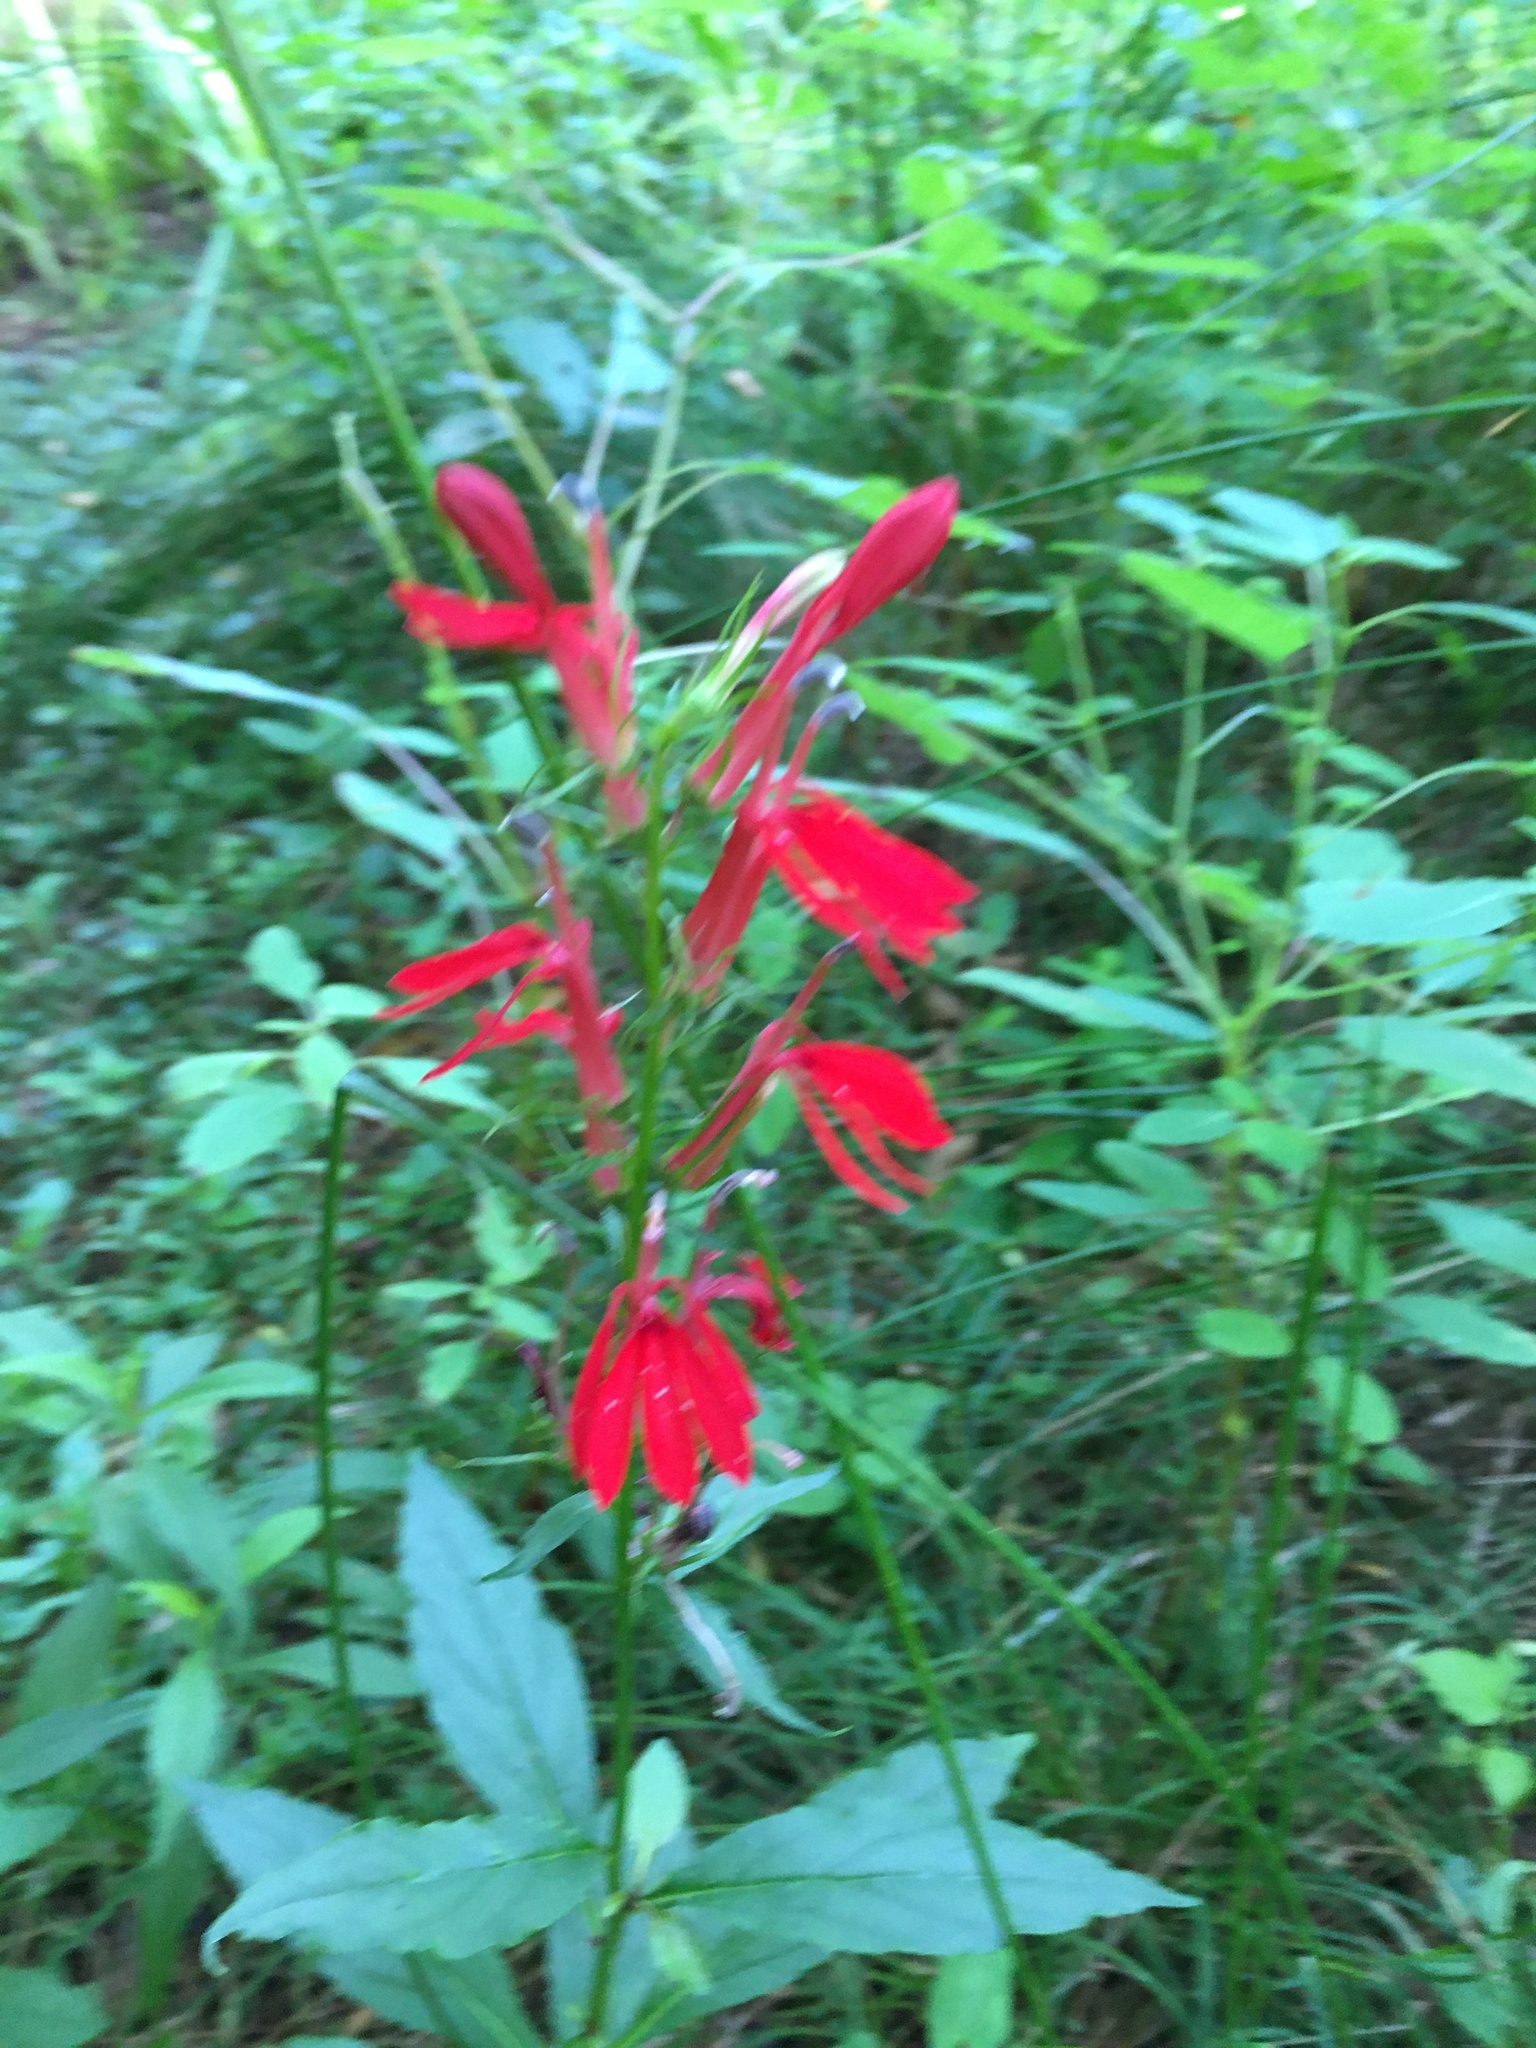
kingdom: Plantae
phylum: Tracheophyta
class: Magnoliopsida
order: Asterales
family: Campanulaceae
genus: Lobelia
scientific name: Lobelia cardinalis
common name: Cardinal flower
